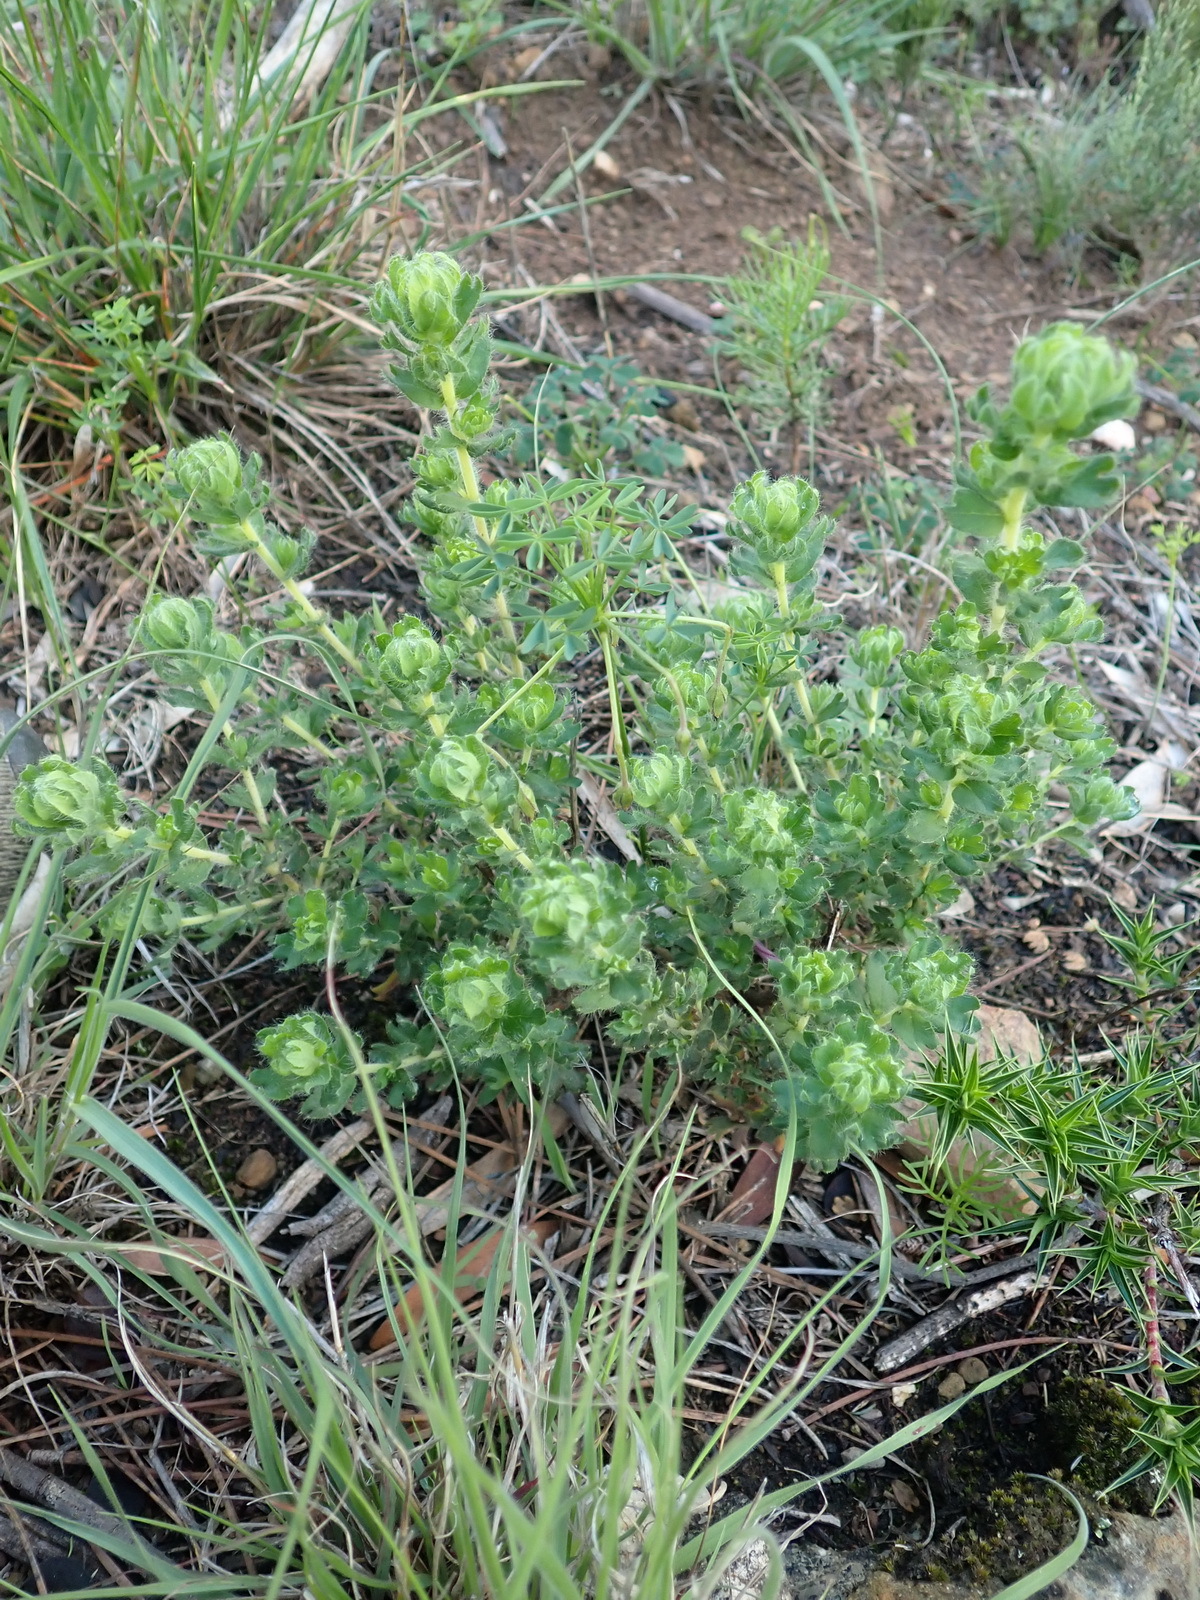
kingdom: Plantae
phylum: Tracheophyta
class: Magnoliopsida
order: Rosales
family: Rosaceae
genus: Cliffortia
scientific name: Cliffortia polygonifolia
